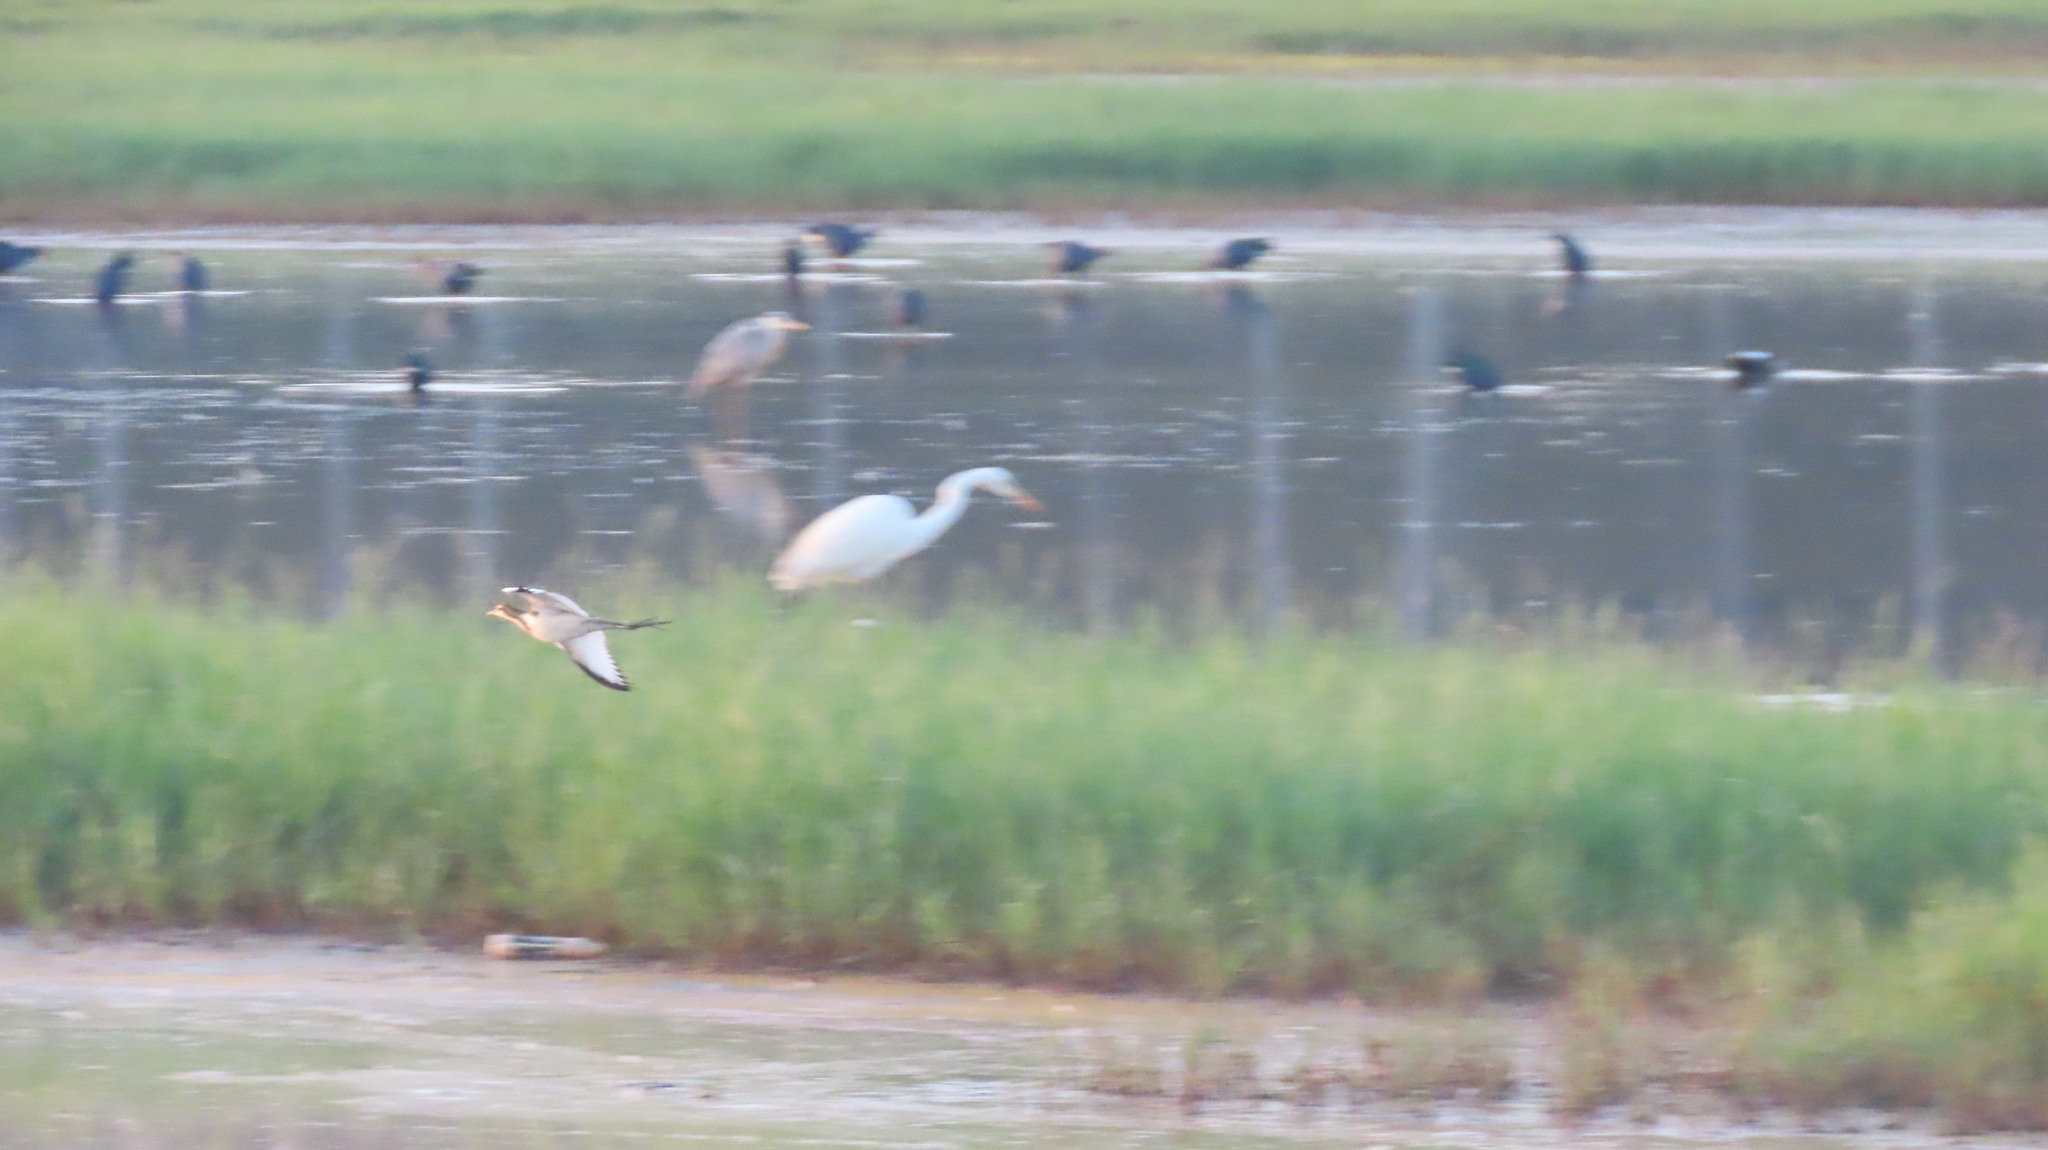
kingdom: Animalia
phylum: Chordata
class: Aves
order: Charadriiformes
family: Jacanidae
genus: Hydrophasianus
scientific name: Hydrophasianus chirurgus
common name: Pheasant-tailed jacana
